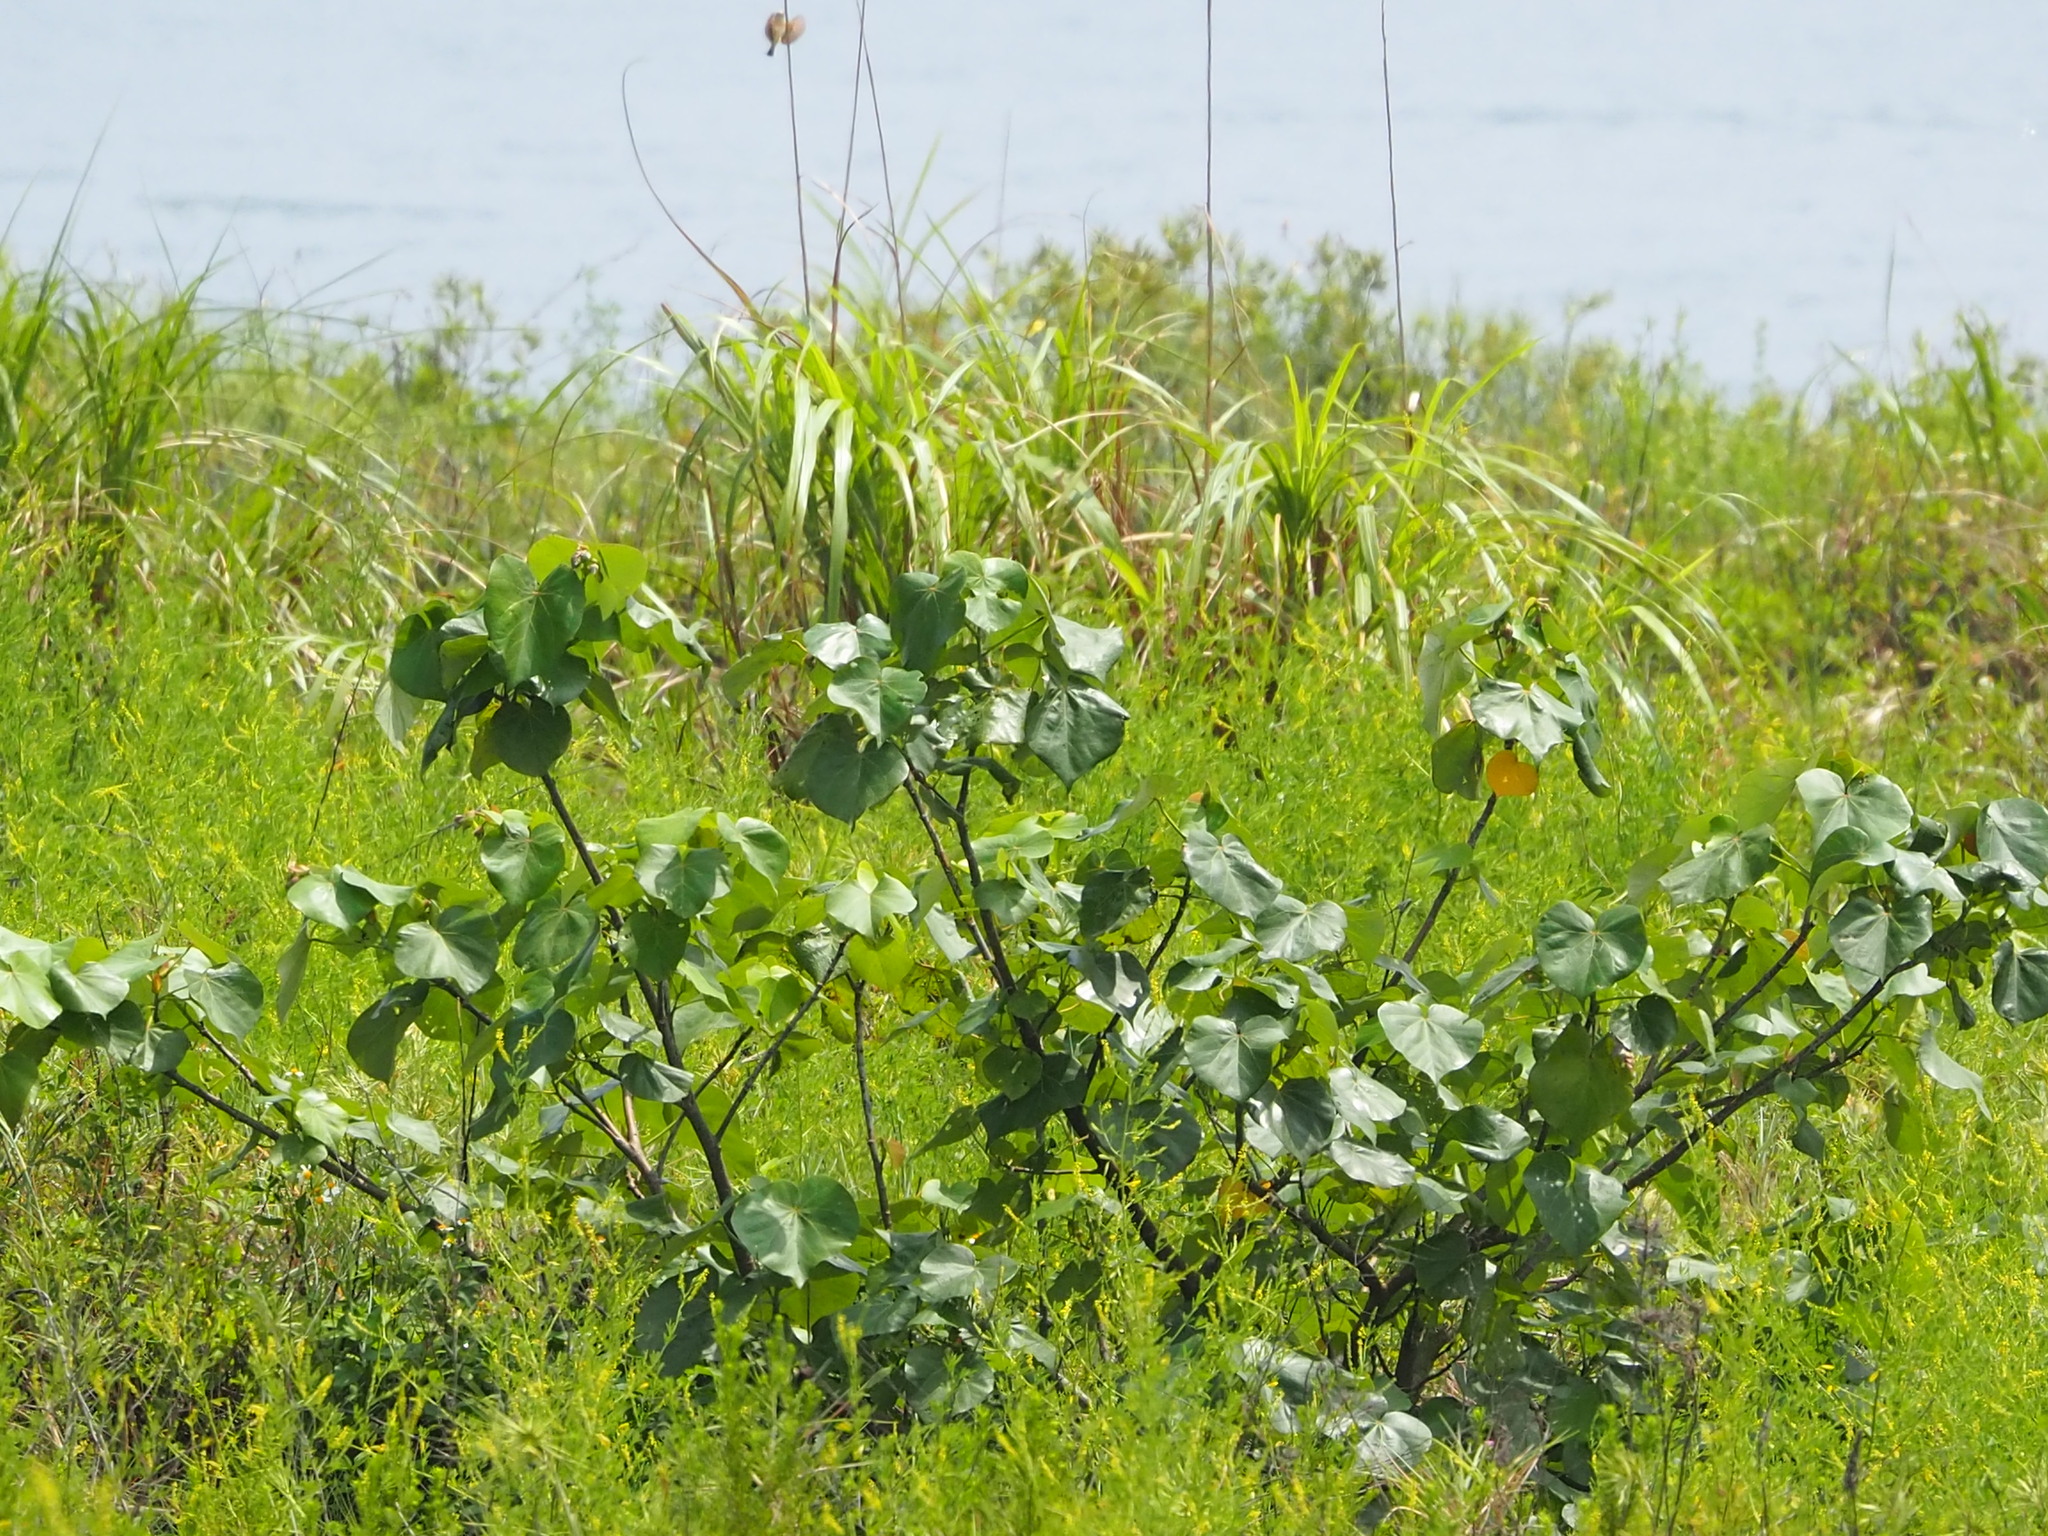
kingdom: Plantae
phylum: Tracheophyta
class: Magnoliopsida
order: Malvales
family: Malvaceae
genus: Talipariti
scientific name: Talipariti tiliaceum
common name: Sea hibiscus
